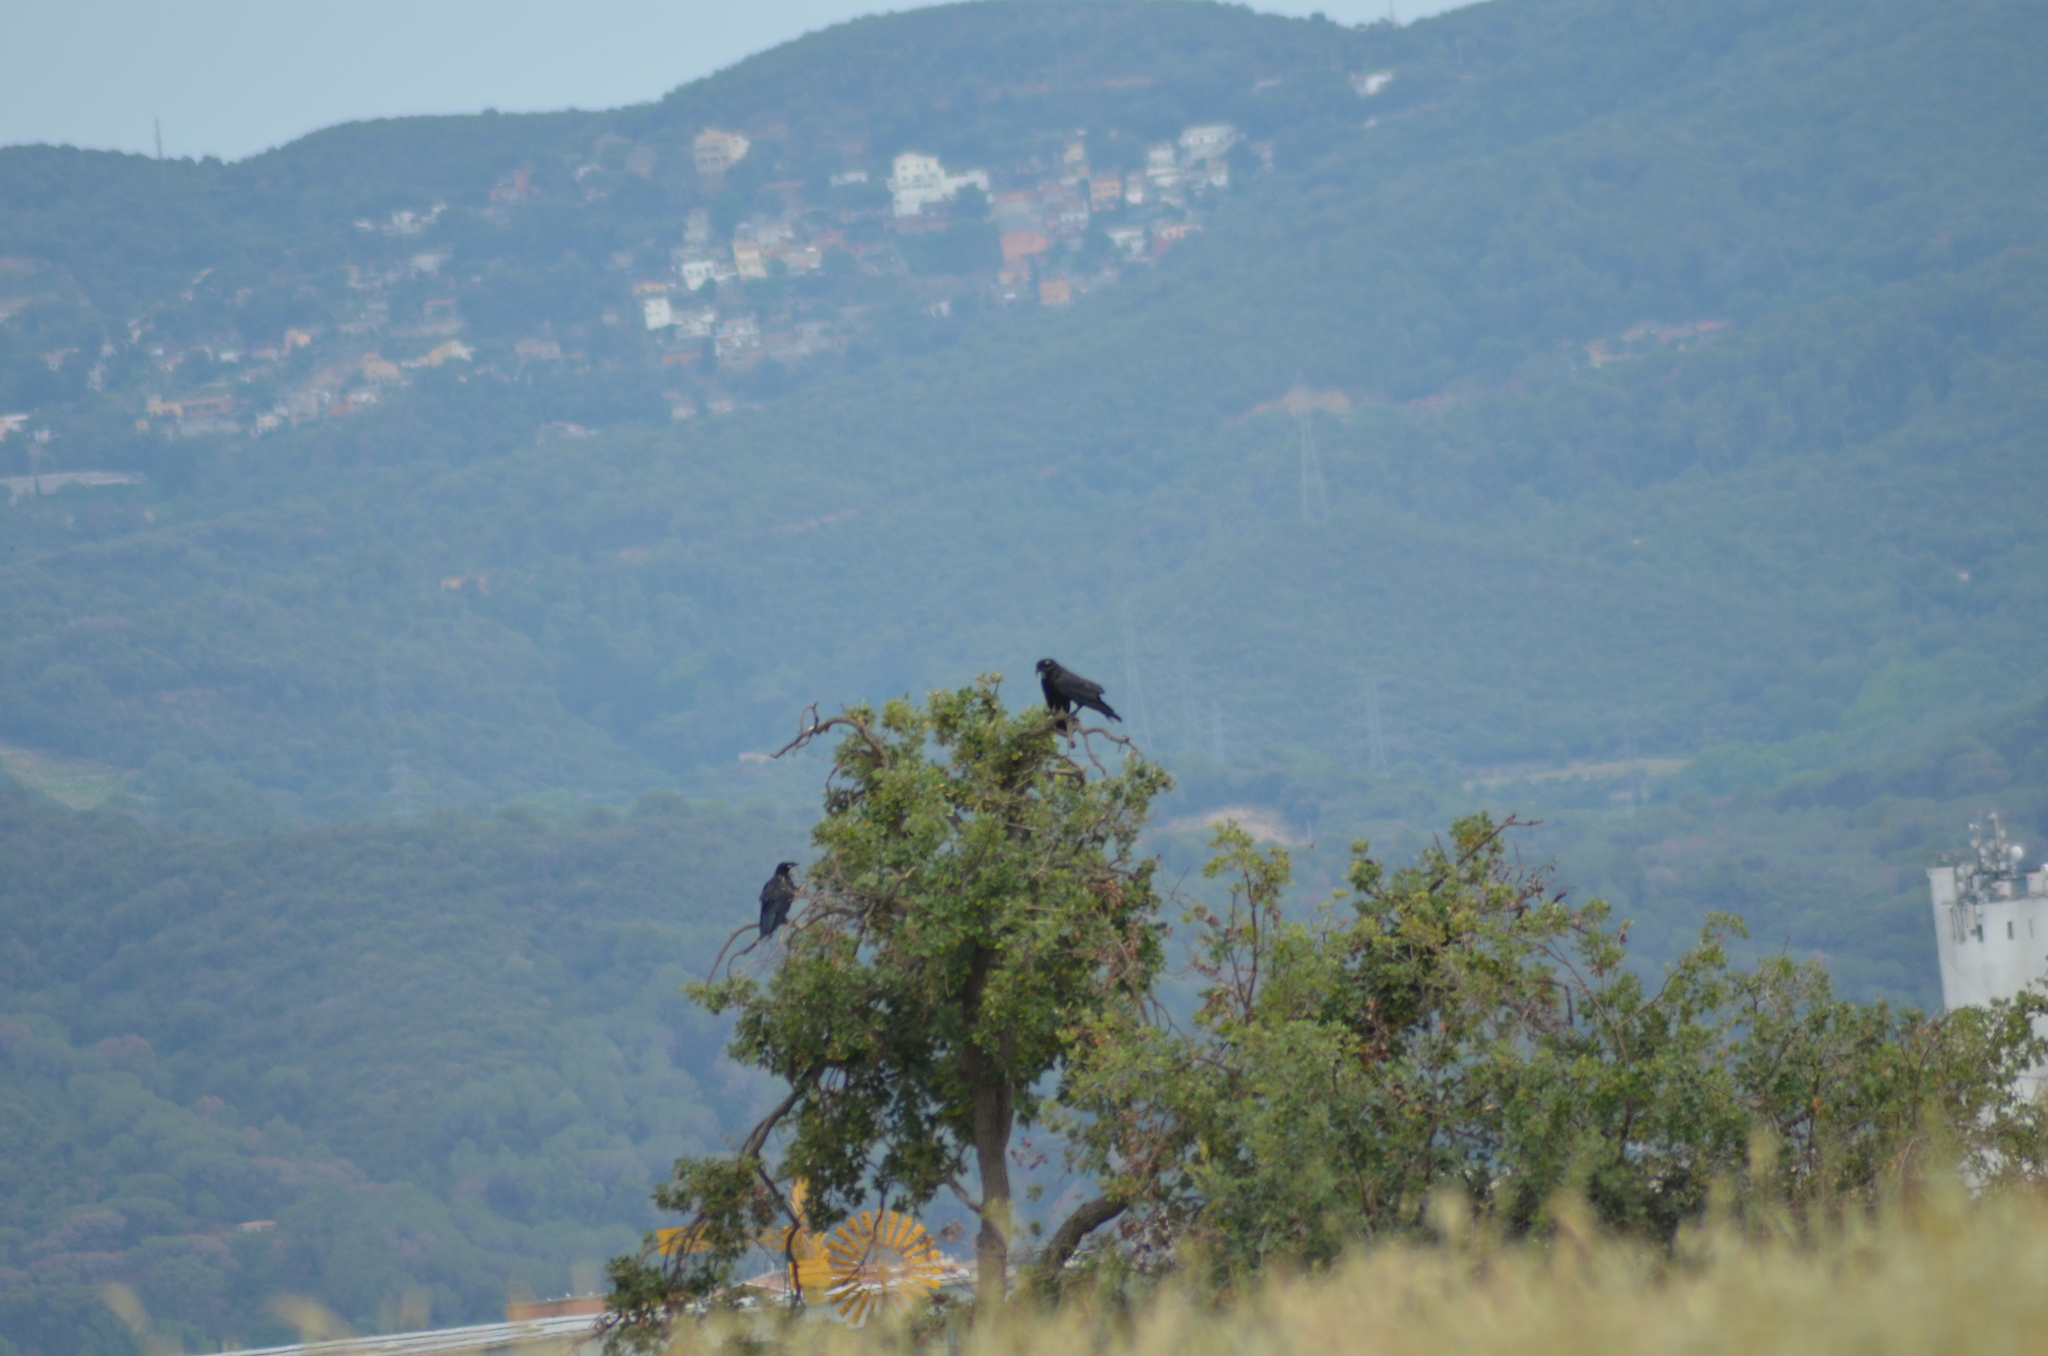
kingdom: Animalia
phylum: Chordata
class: Aves
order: Passeriformes
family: Corvidae
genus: Corvus
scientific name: Corvus corax
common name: Common raven
